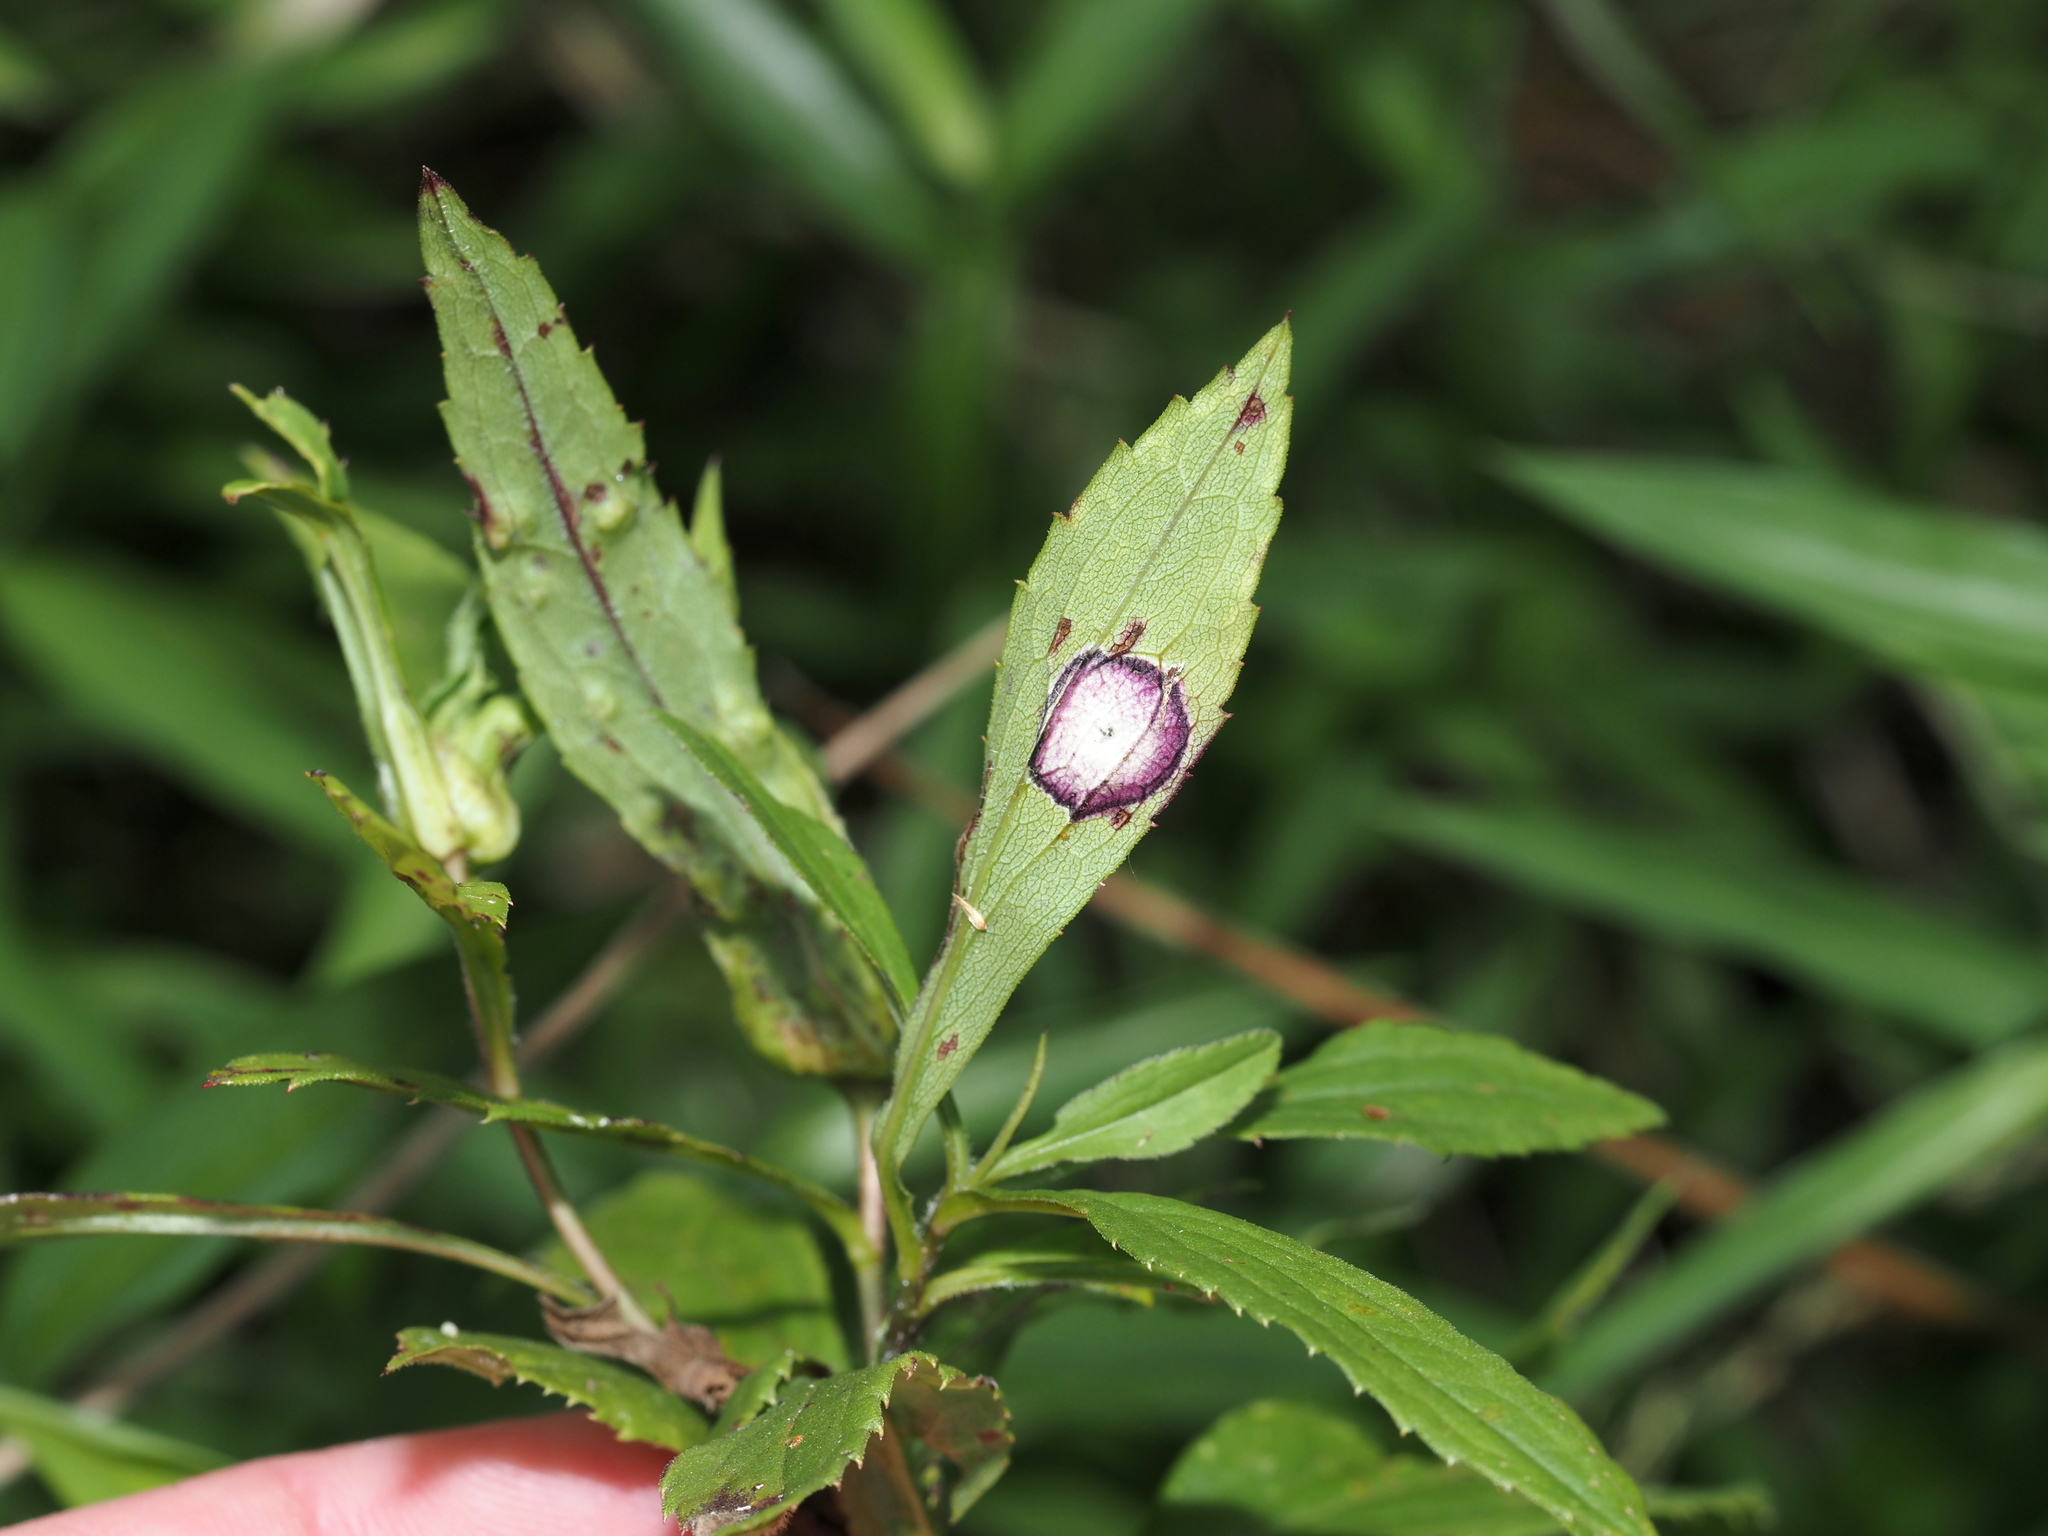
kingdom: Animalia
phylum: Arthropoda
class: Insecta
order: Diptera
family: Cecidomyiidae
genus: Asteromyia
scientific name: Asteromyia carbonifera
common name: Carbonifera goldenrod gall midge
